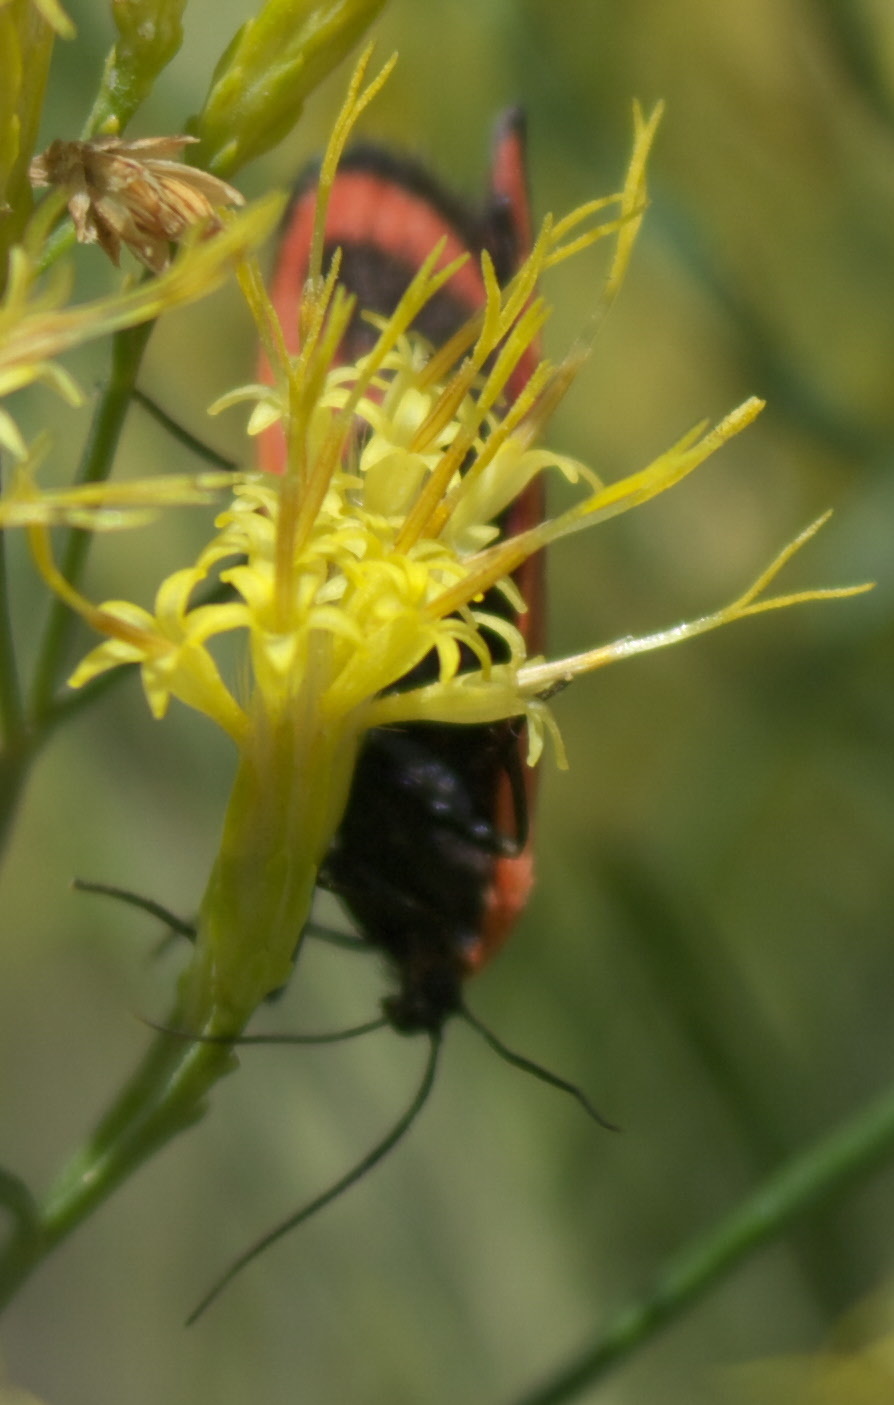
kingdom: Animalia
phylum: Arthropoda
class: Insecta
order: Lepidoptera
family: Erebidae
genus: Lycomorpha
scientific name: Lycomorpha grotei
